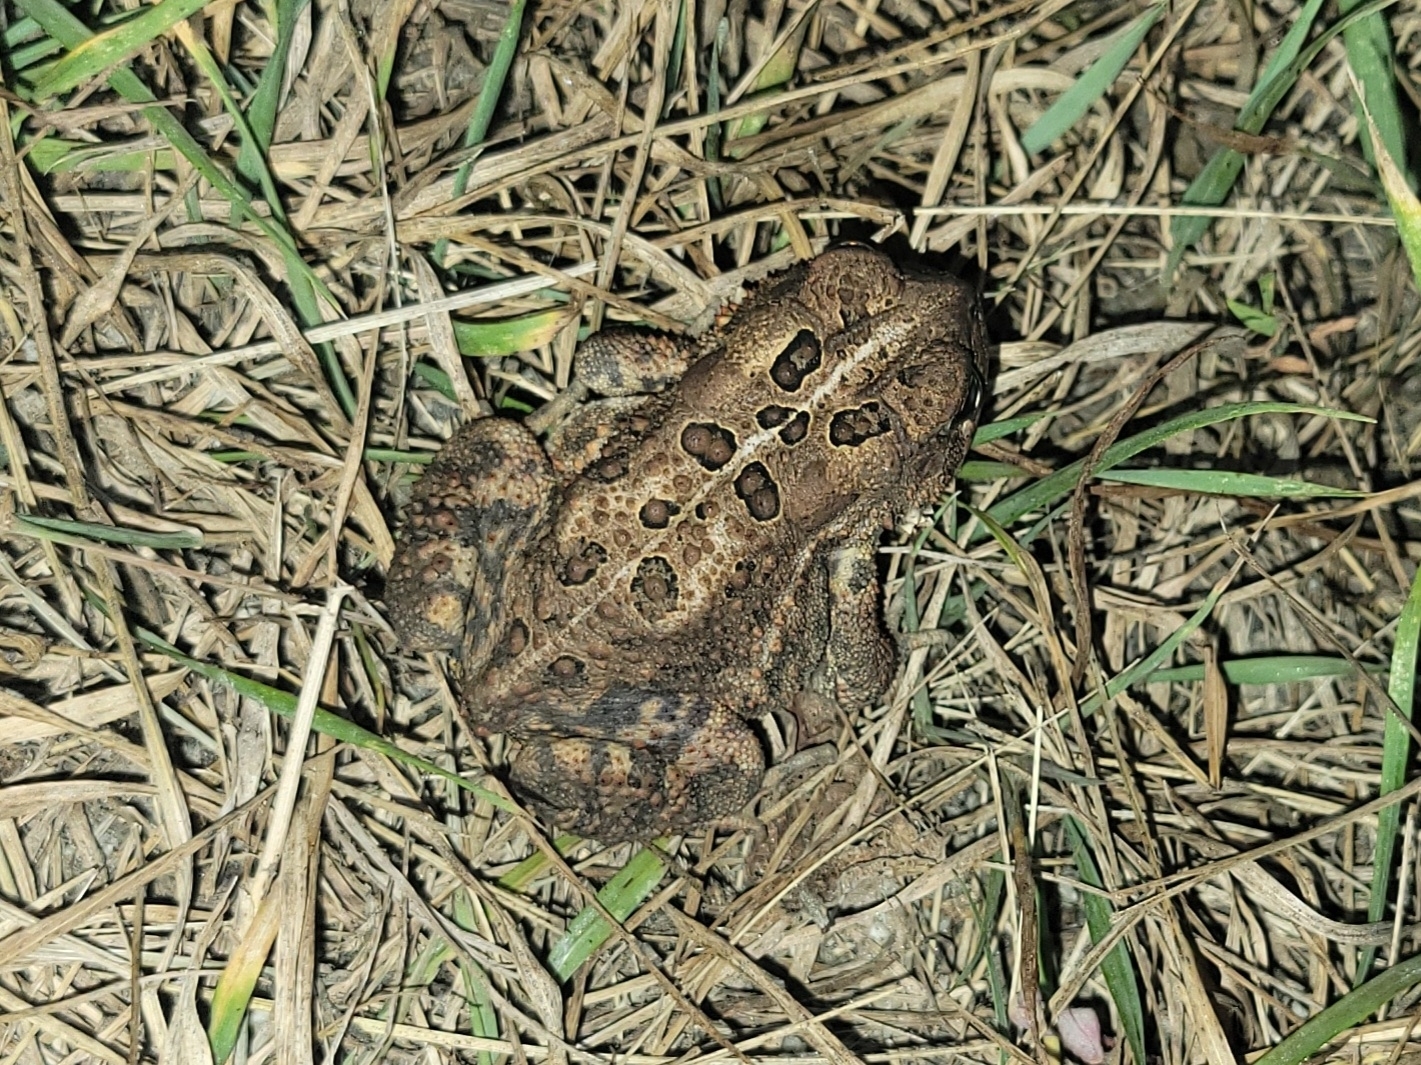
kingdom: Animalia
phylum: Chordata
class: Amphibia
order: Anura
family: Bufonidae
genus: Anaxyrus
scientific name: Anaxyrus americanus
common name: American toad
